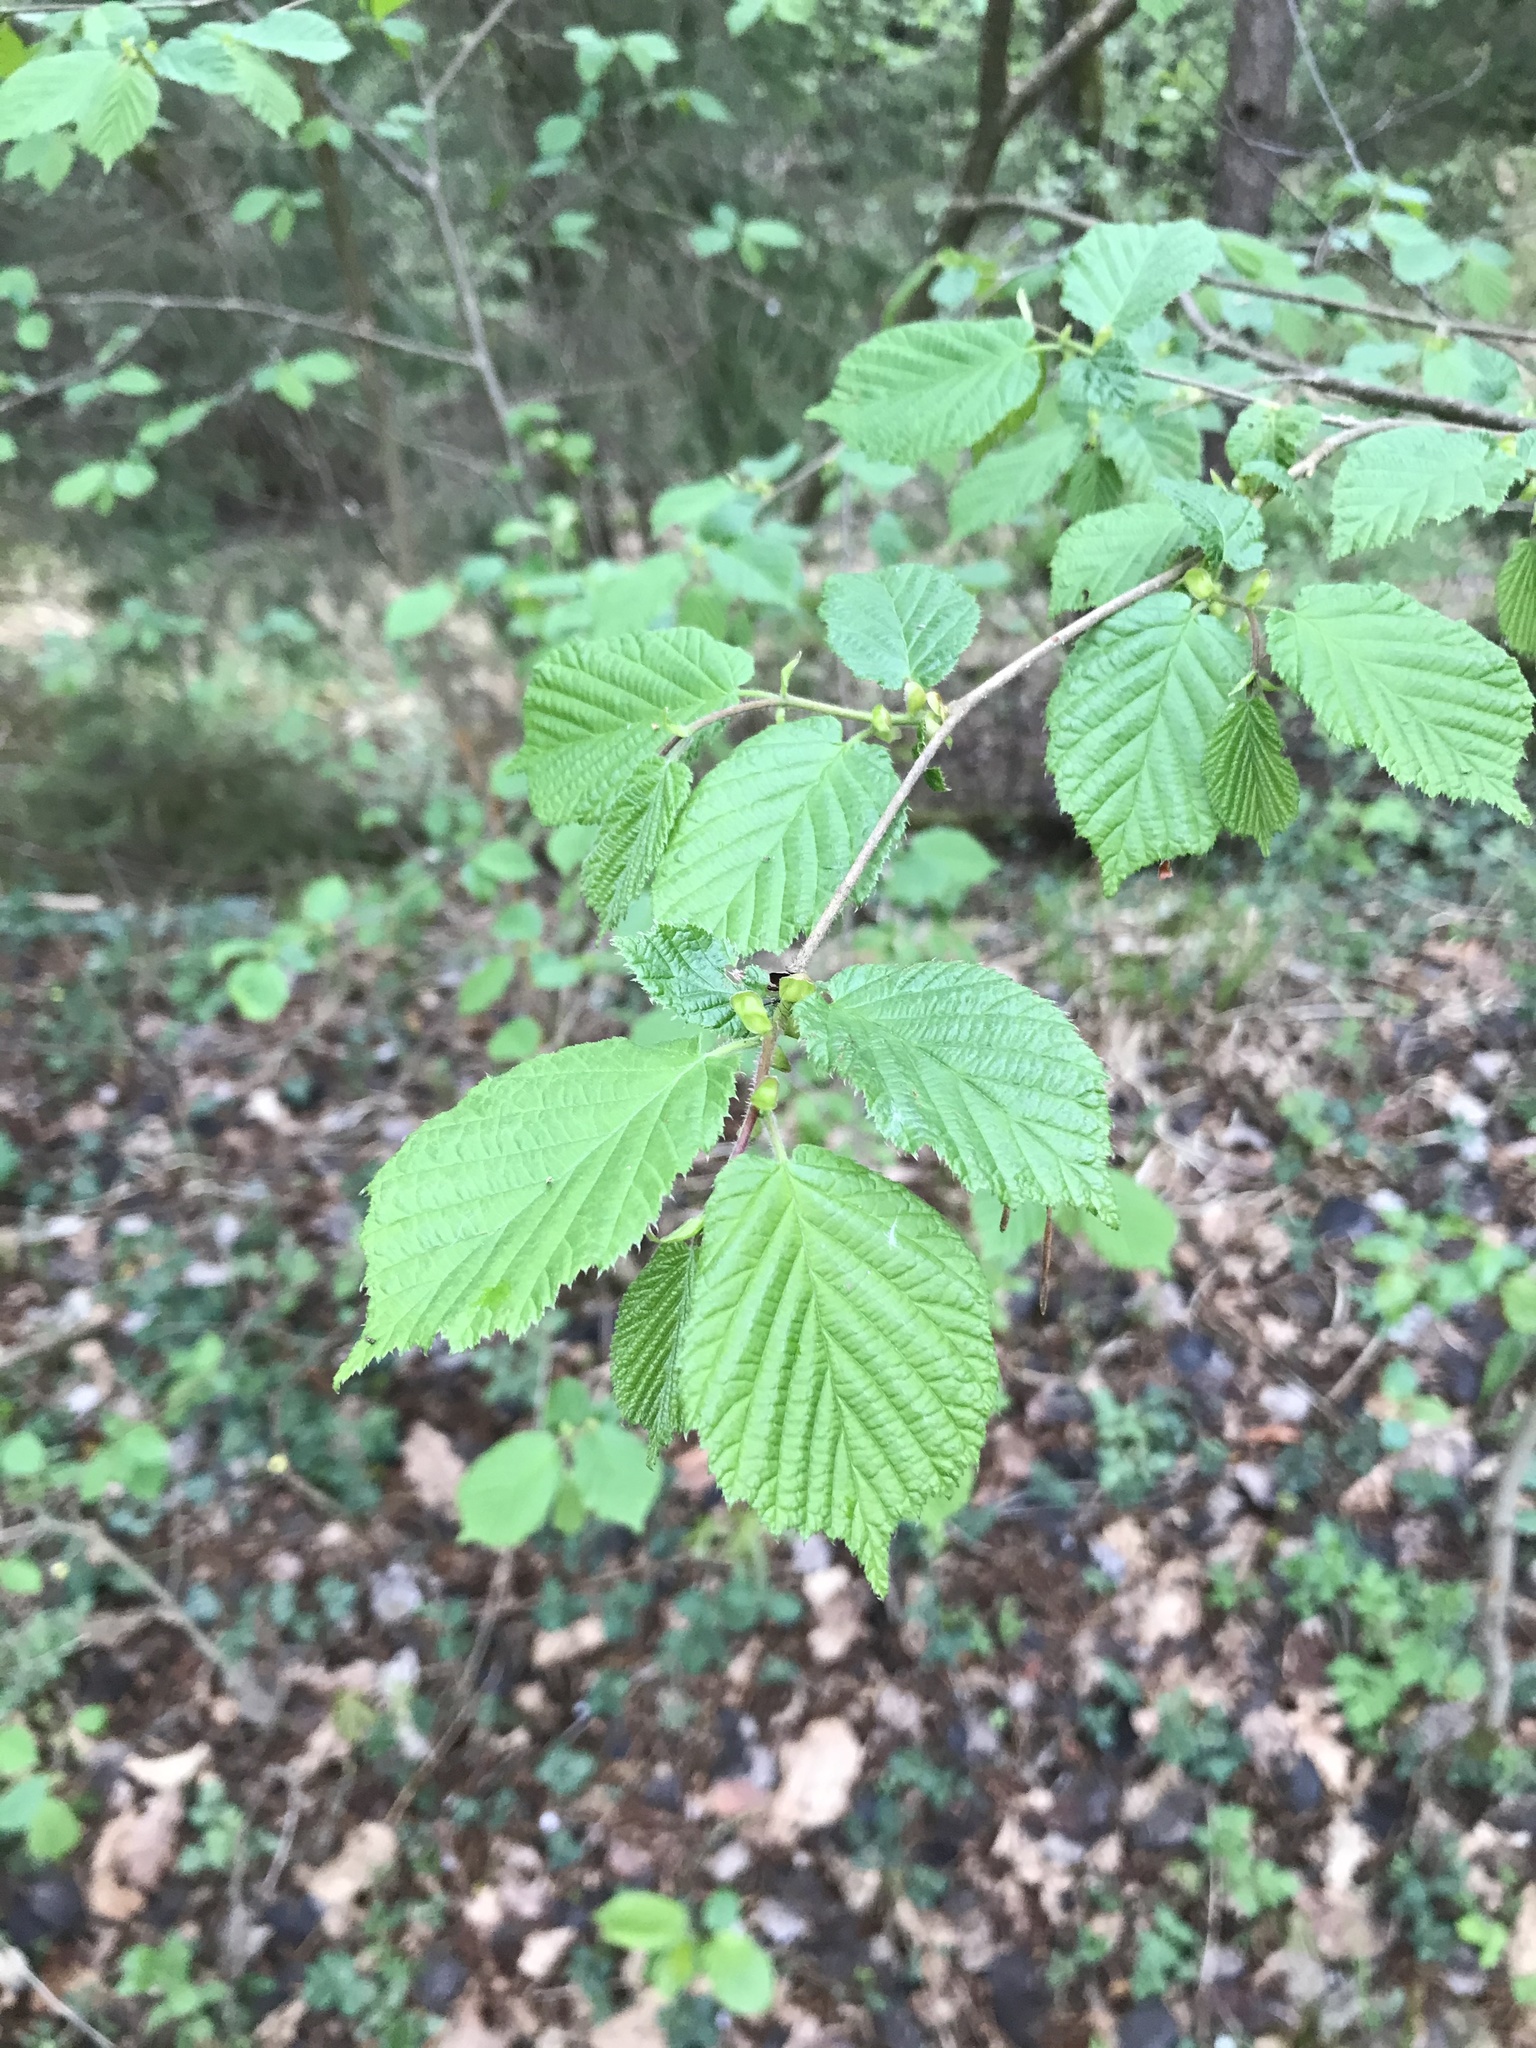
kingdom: Plantae
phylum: Tracheophyta
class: Magnoliopsida
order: Fagales
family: Betulaceae
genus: Corylus
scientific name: Corylus avellana
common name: European hazel
